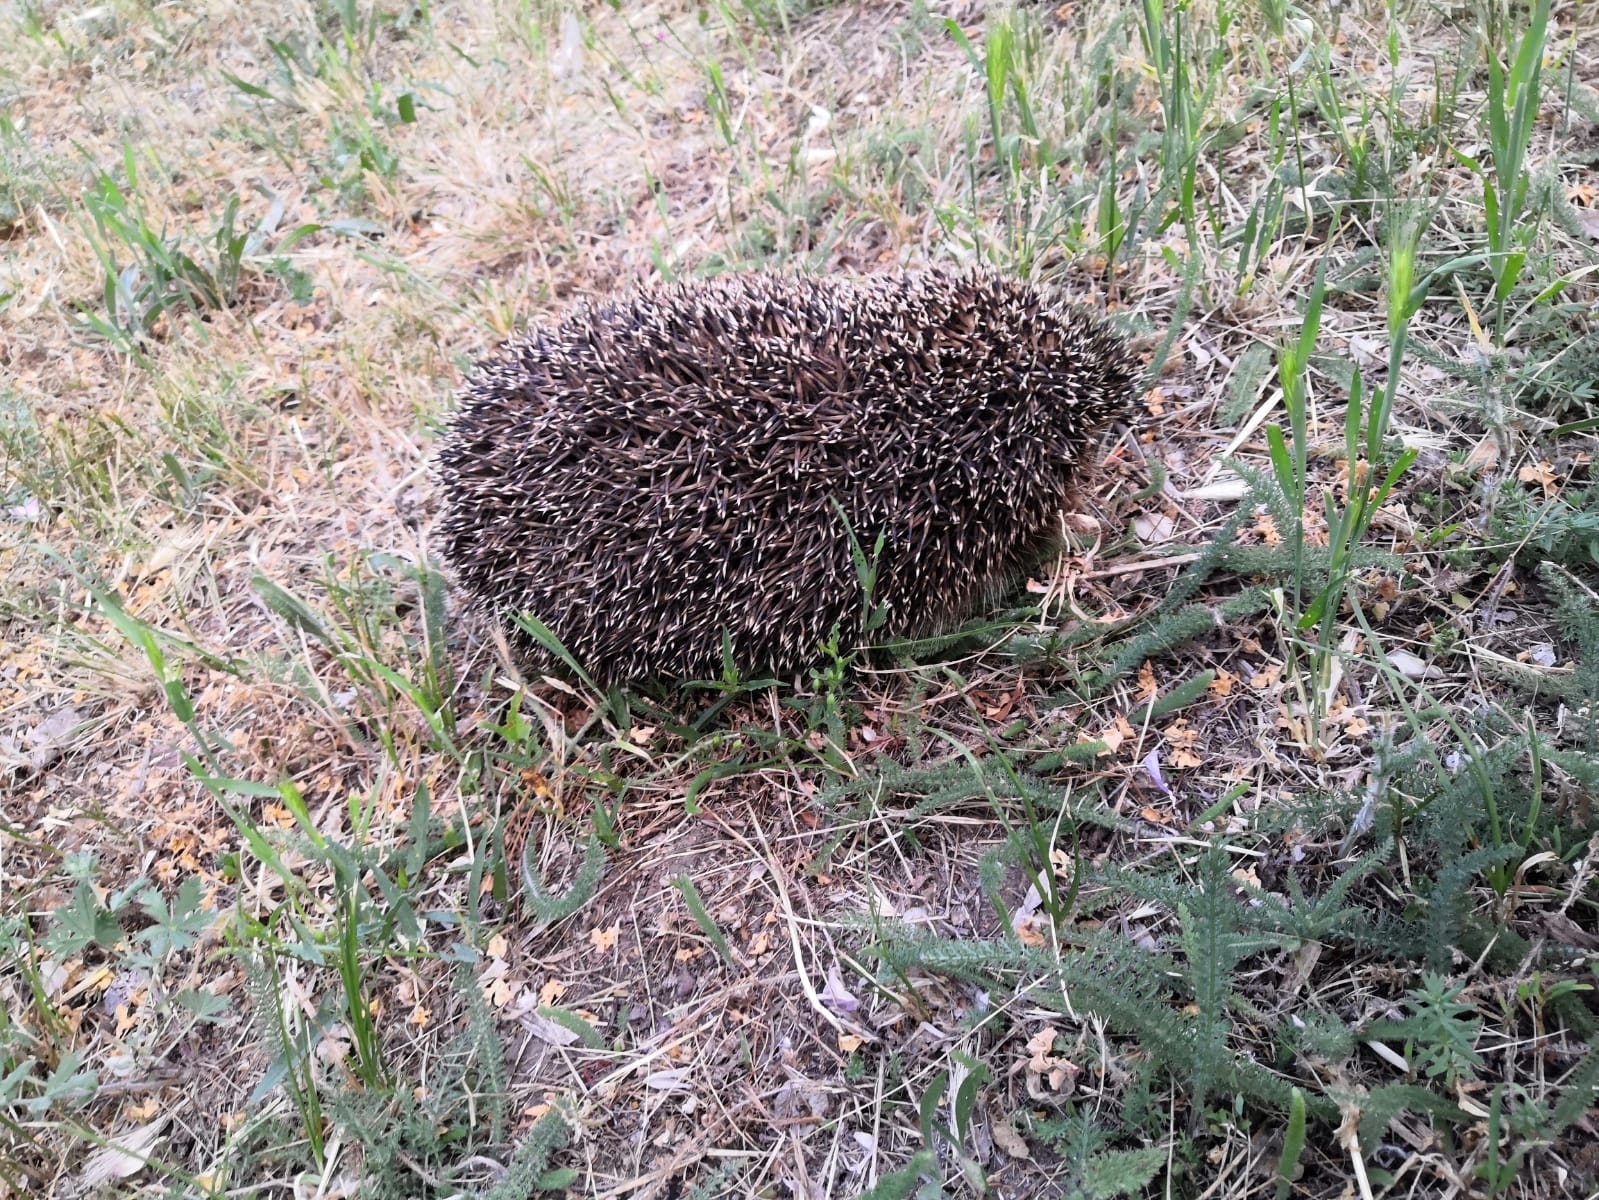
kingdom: Animalia
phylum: Chordata
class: Mammalia
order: Erinaceomorpha
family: Erinaceidae
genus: Erinaceus
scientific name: Erinaceus roumanicus
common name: Northern white-breasted hedgehog
